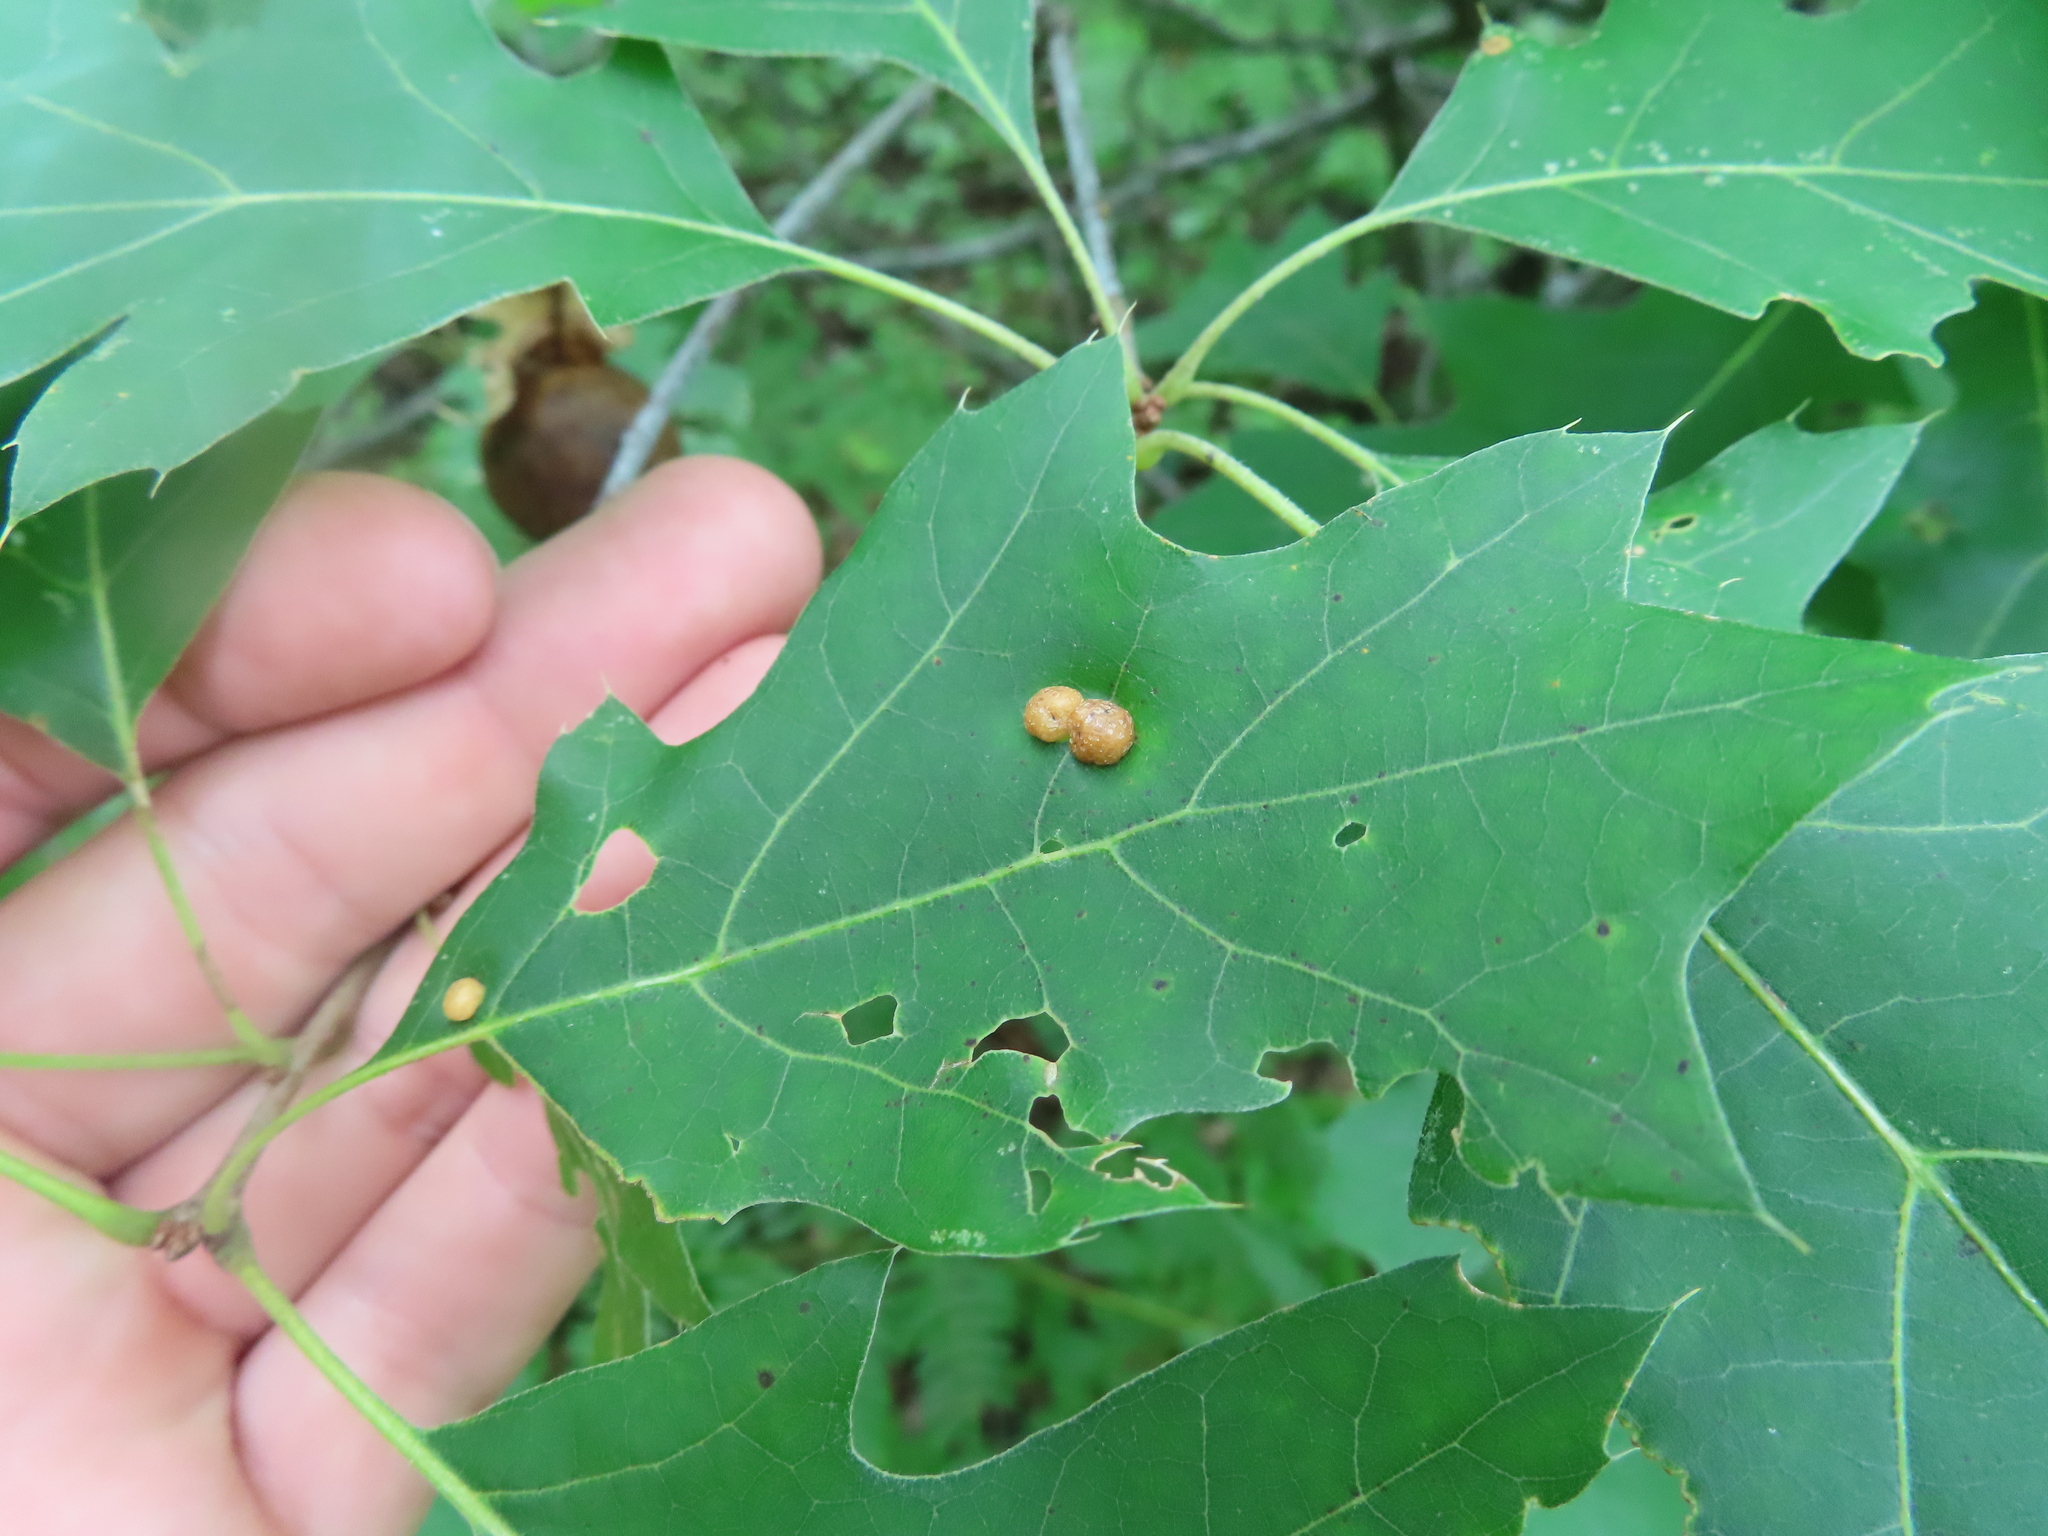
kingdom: Animalia
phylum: Arthropoda
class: Insecta
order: Diptera
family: Cecidomyiidae
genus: Polystepha
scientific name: Polystepha pilulae
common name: Oak leaf gall midge
